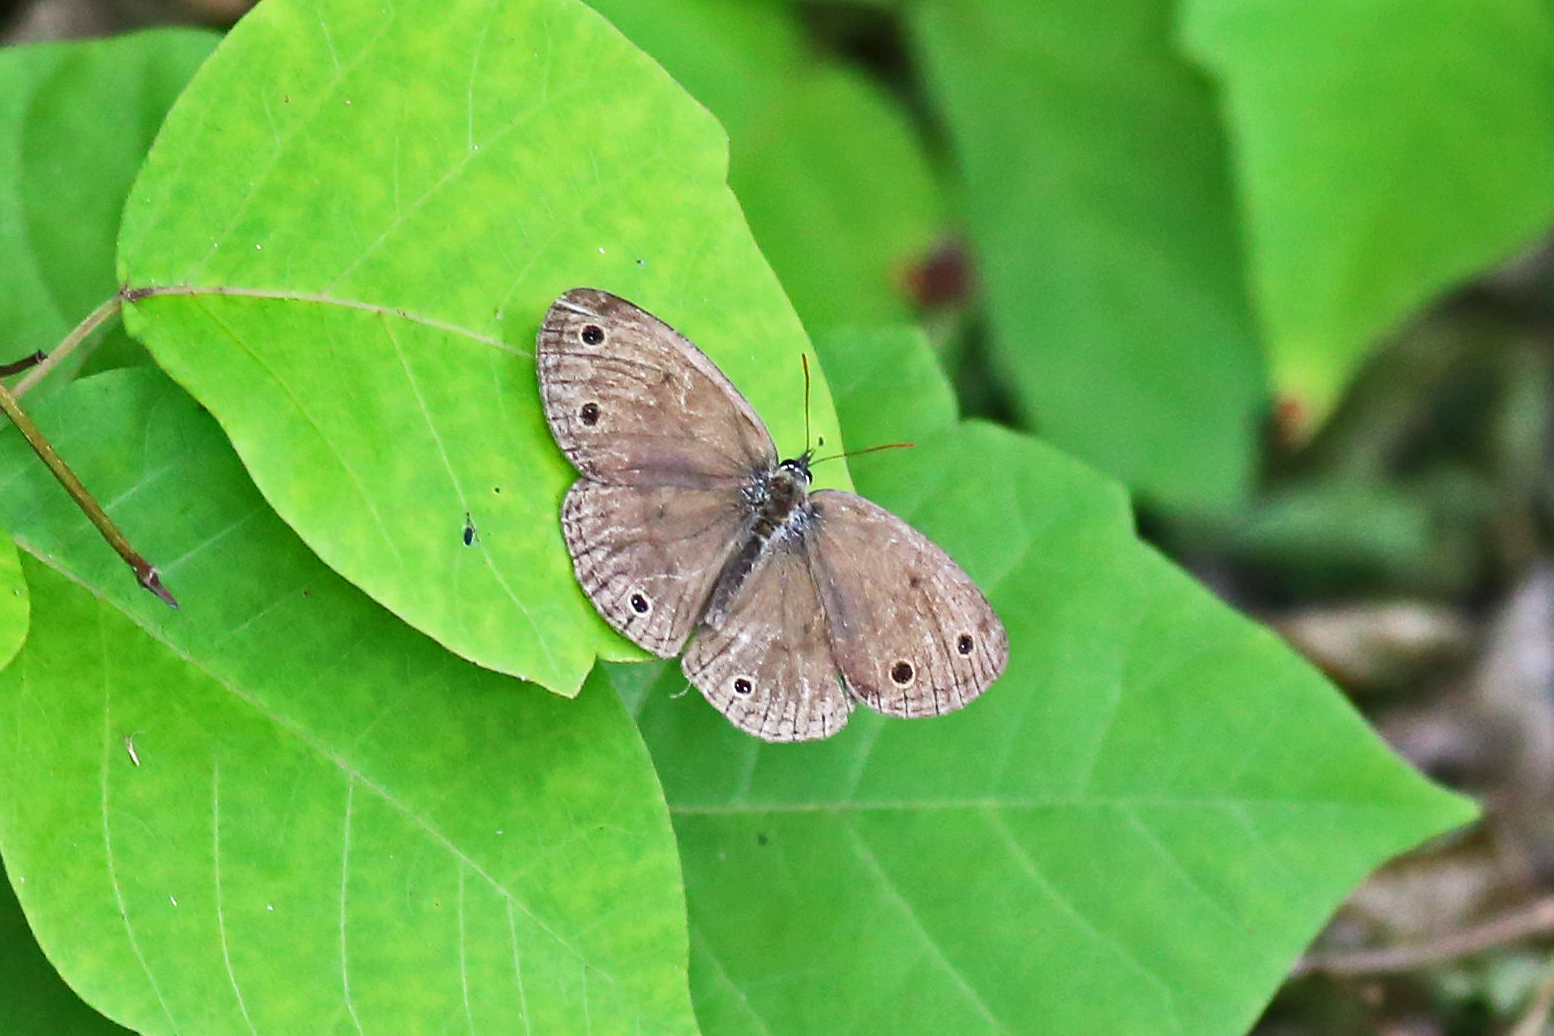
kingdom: Animalia
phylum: Arthropoda
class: Insecta
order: Lepidoptera
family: Nymphalidae
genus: Euptychia
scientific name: Euptychia cymela
